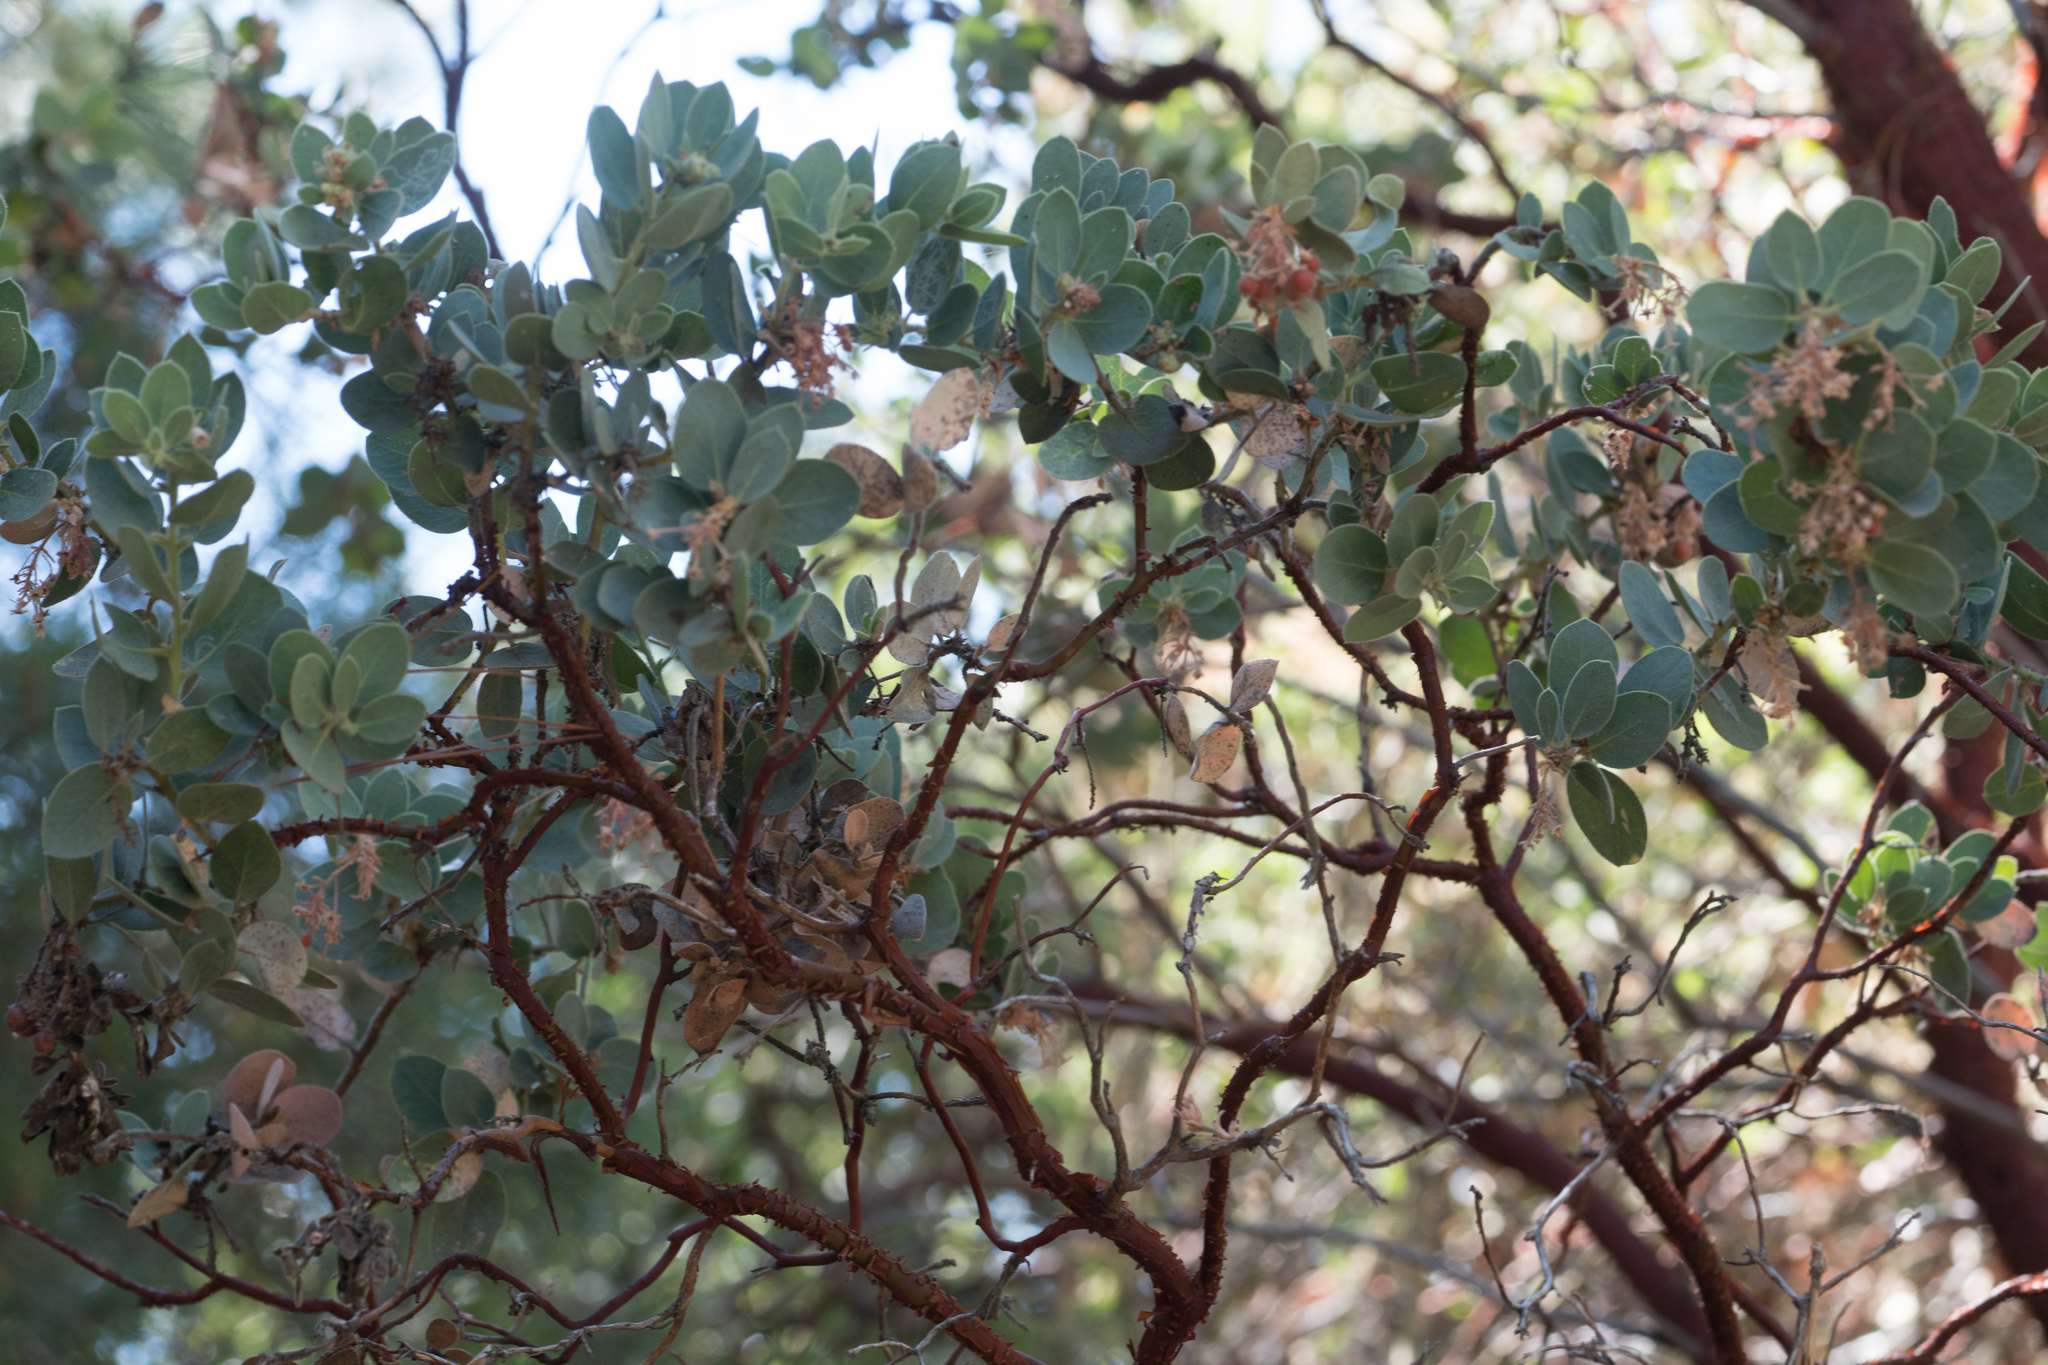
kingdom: Plantae
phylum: Tracheophyta
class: Magnoliopsida
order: Ericales
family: Ericaceae
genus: Arctostaphylos
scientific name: Arctostaphylos pringlei
